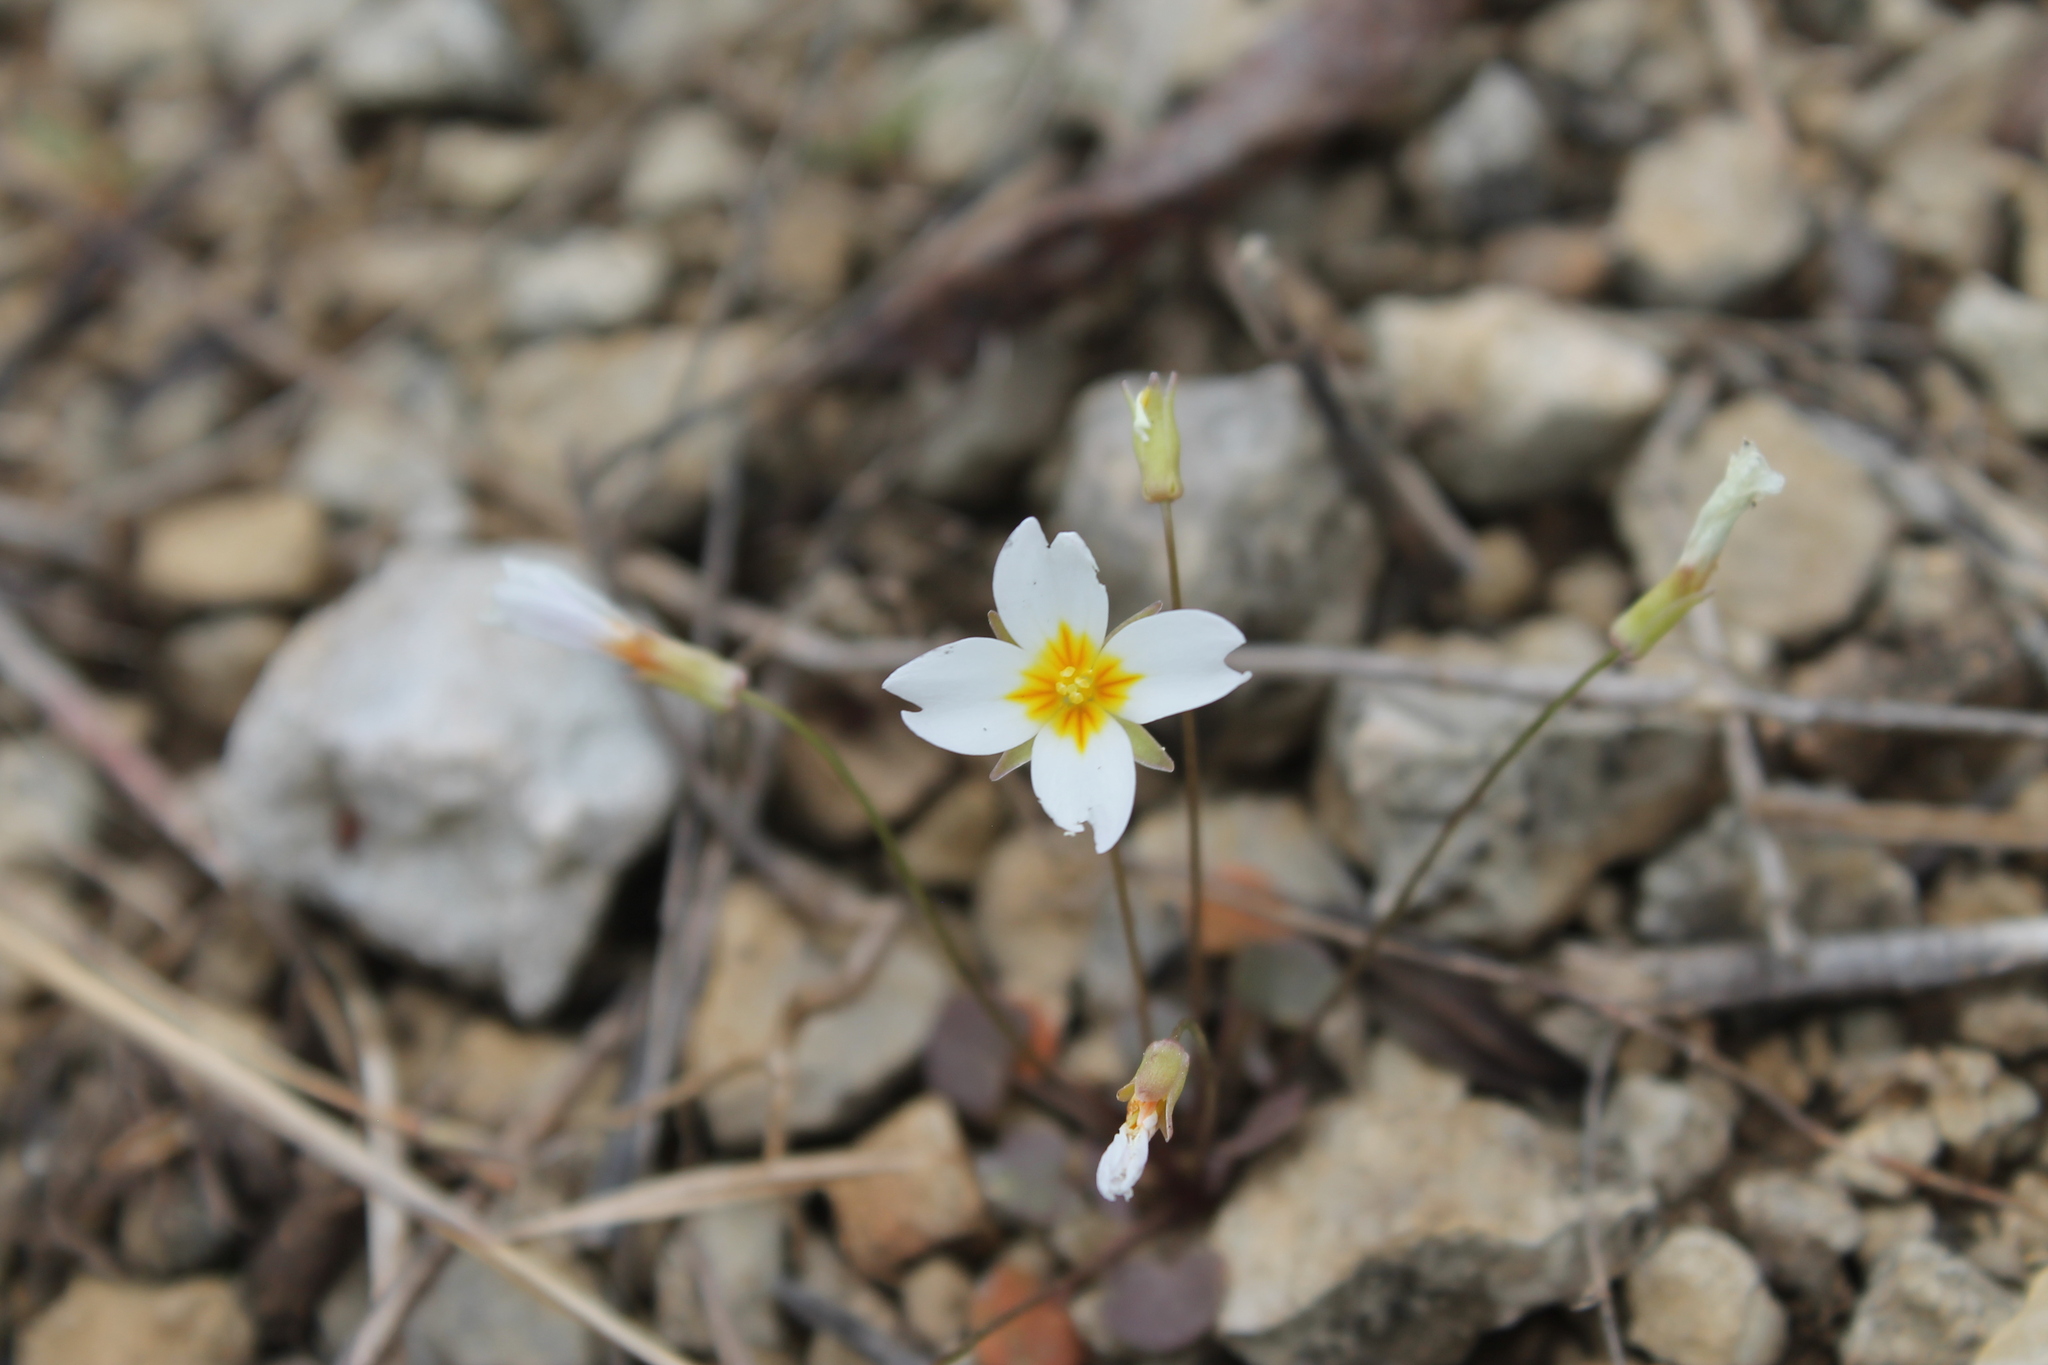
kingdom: Plantae
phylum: Tracheophyta
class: Magnoliopsida
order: Brassicales
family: Brassicaceae
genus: Leavenworthia
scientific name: Leavenworthia stylosa
